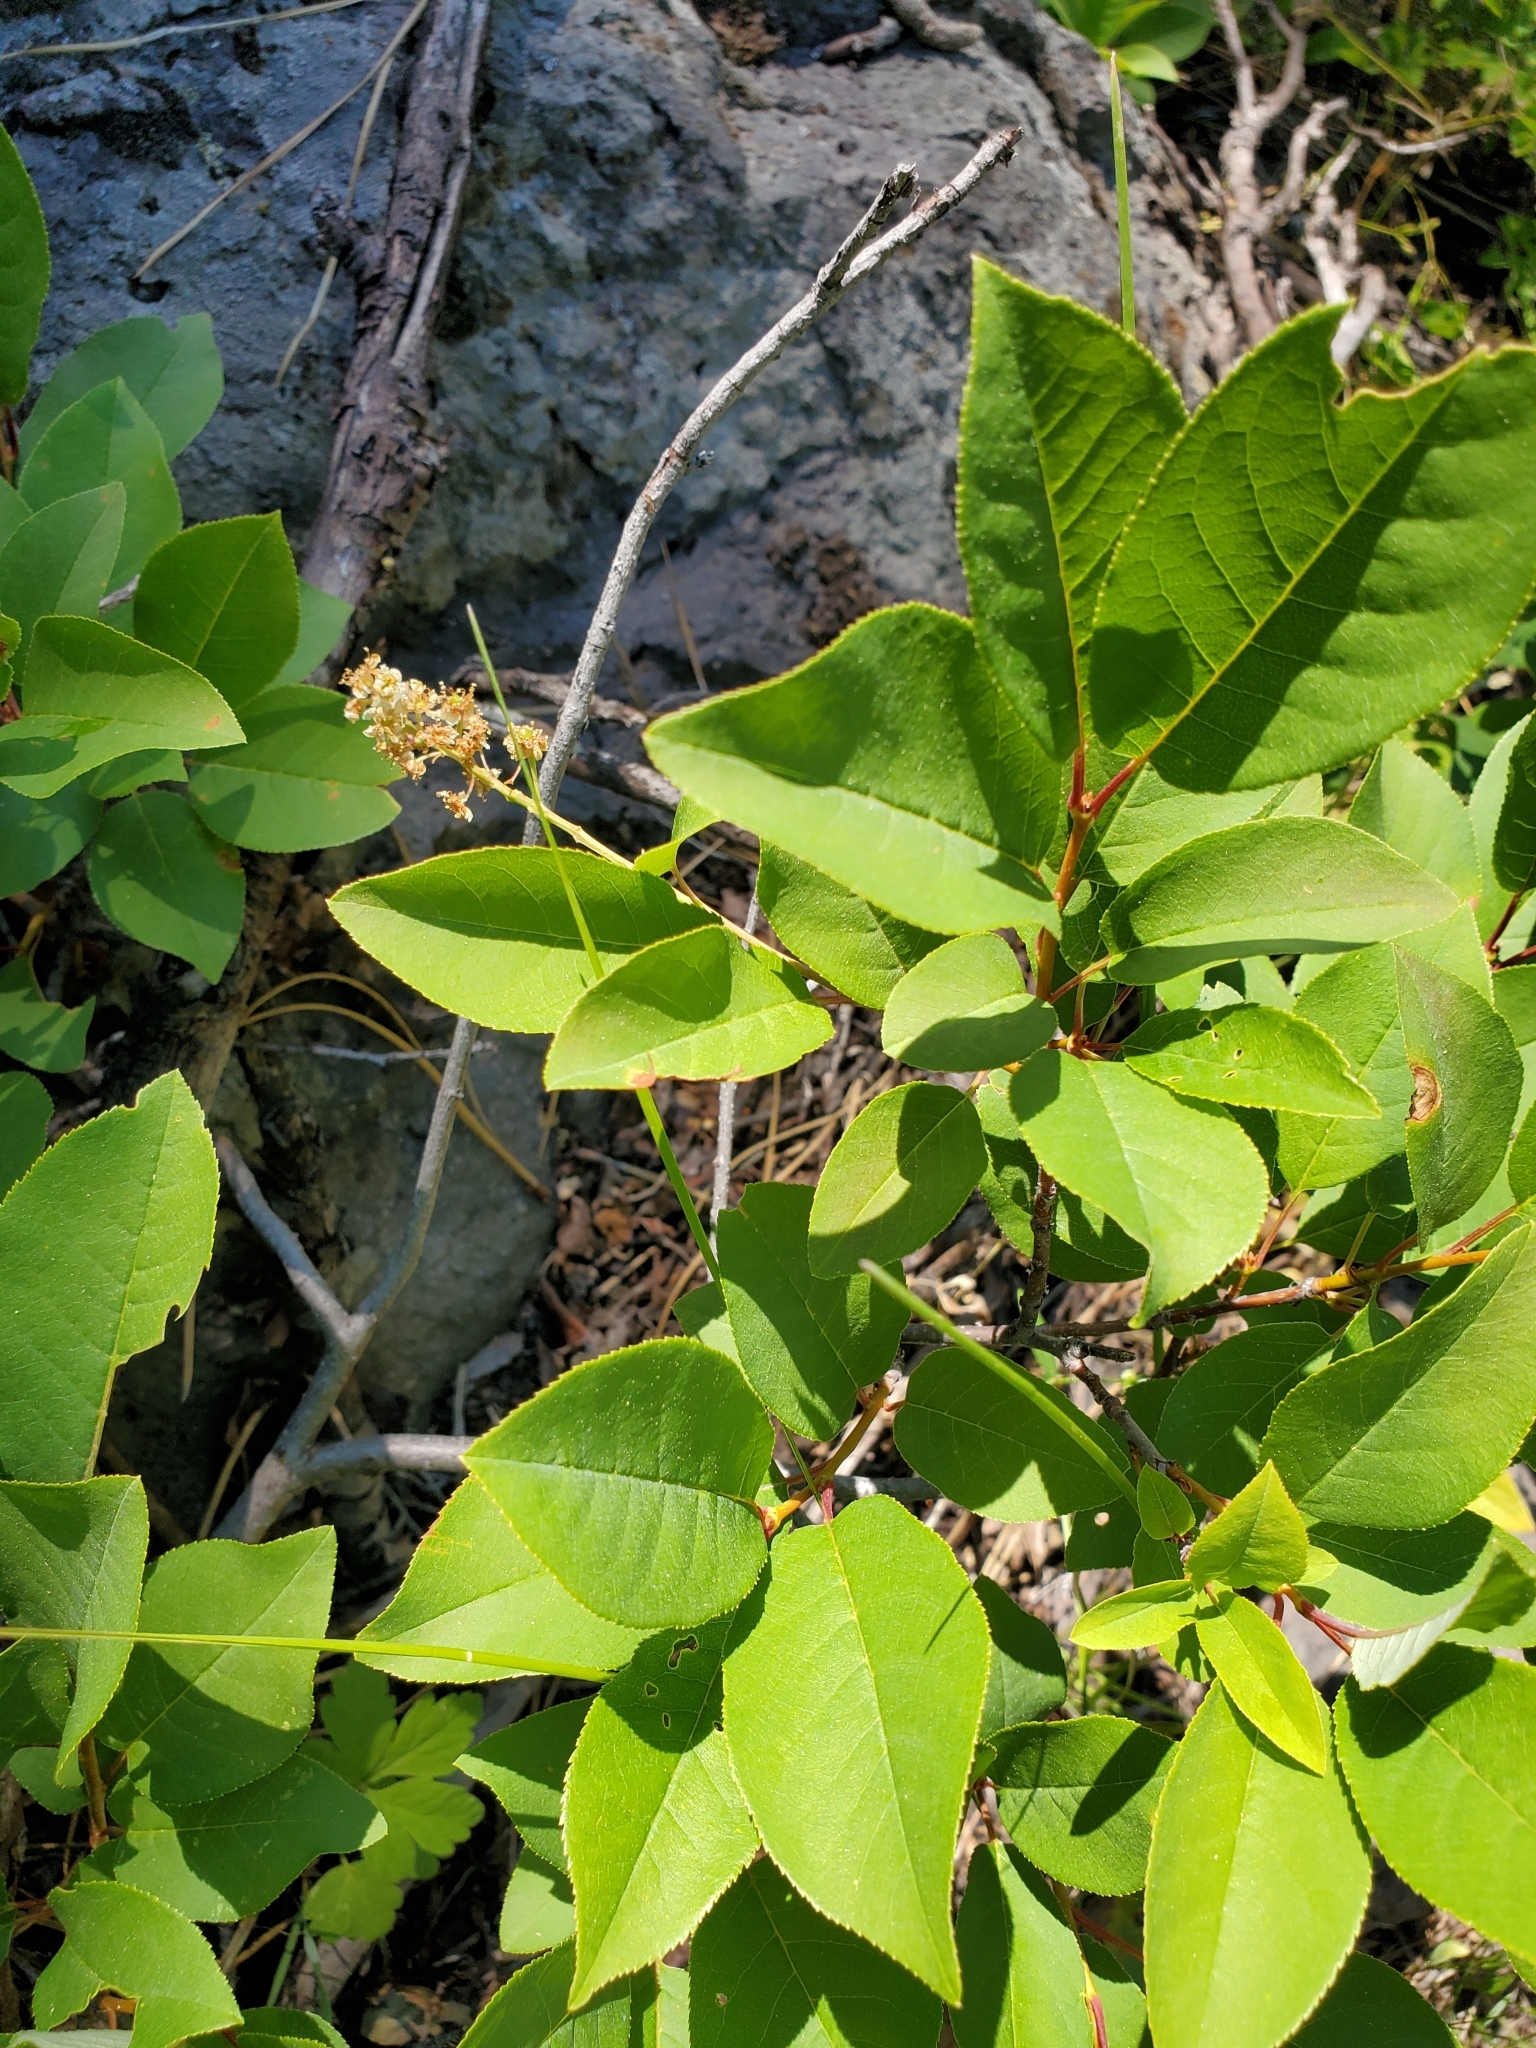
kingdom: Plantae
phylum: Tracheophyta
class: Magnoliopsida
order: Rosales
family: Rosaceae
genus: Prunus
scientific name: Prunus virginiana
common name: Chokecherry
